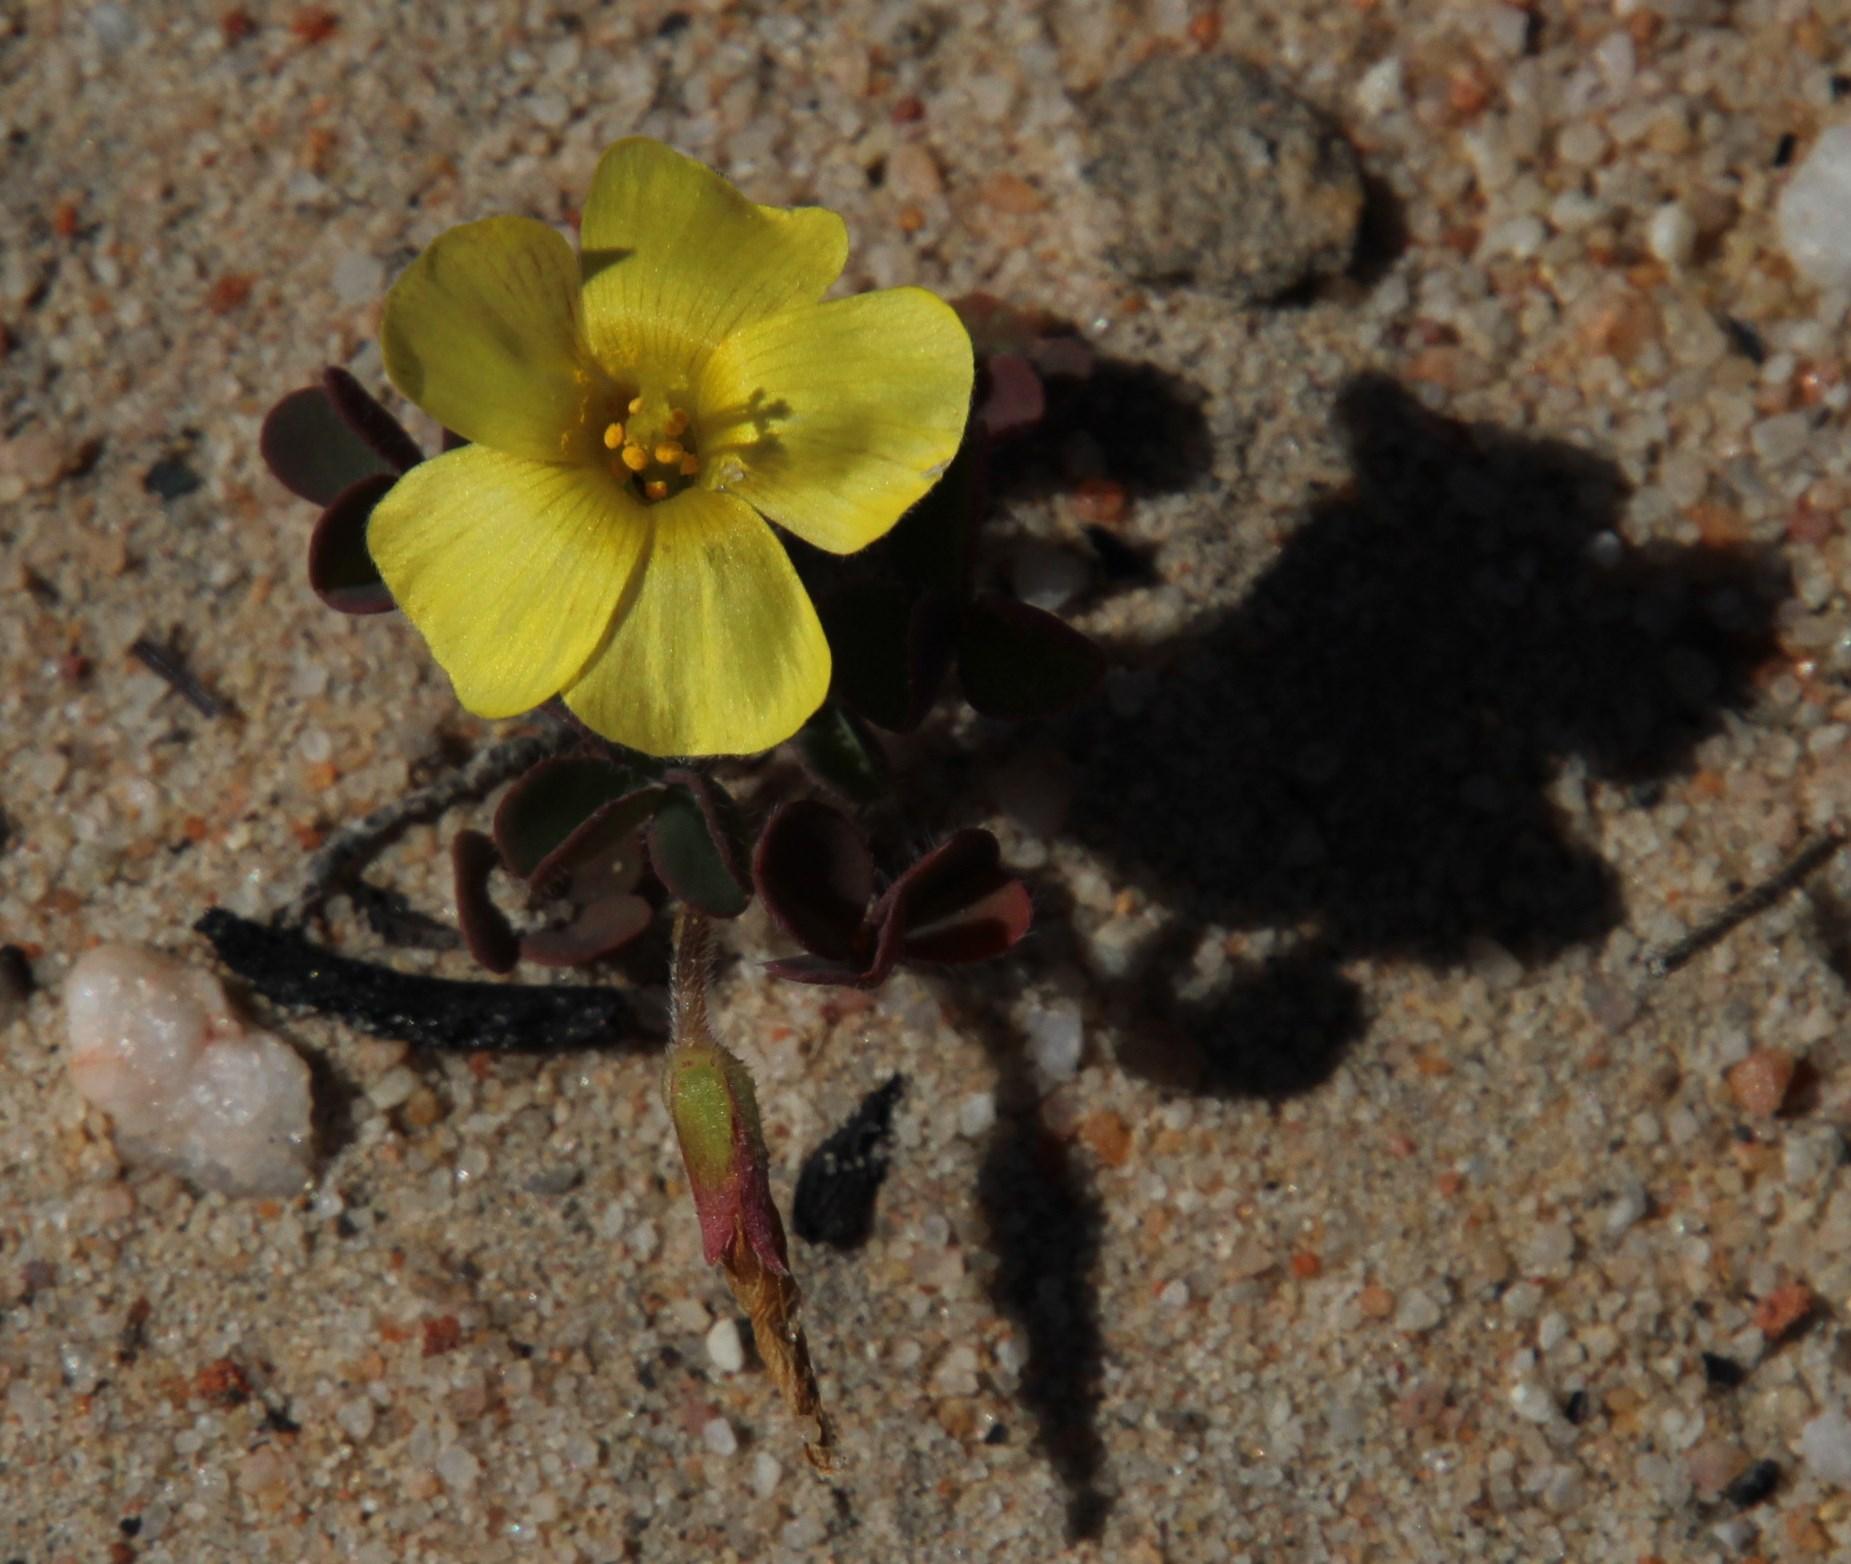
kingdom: Plantae
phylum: Tracheophyta
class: Magnoliopsida
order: Oxalidales
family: Oxalidaceae
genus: Oxalis
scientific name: Oxalis obtusa
